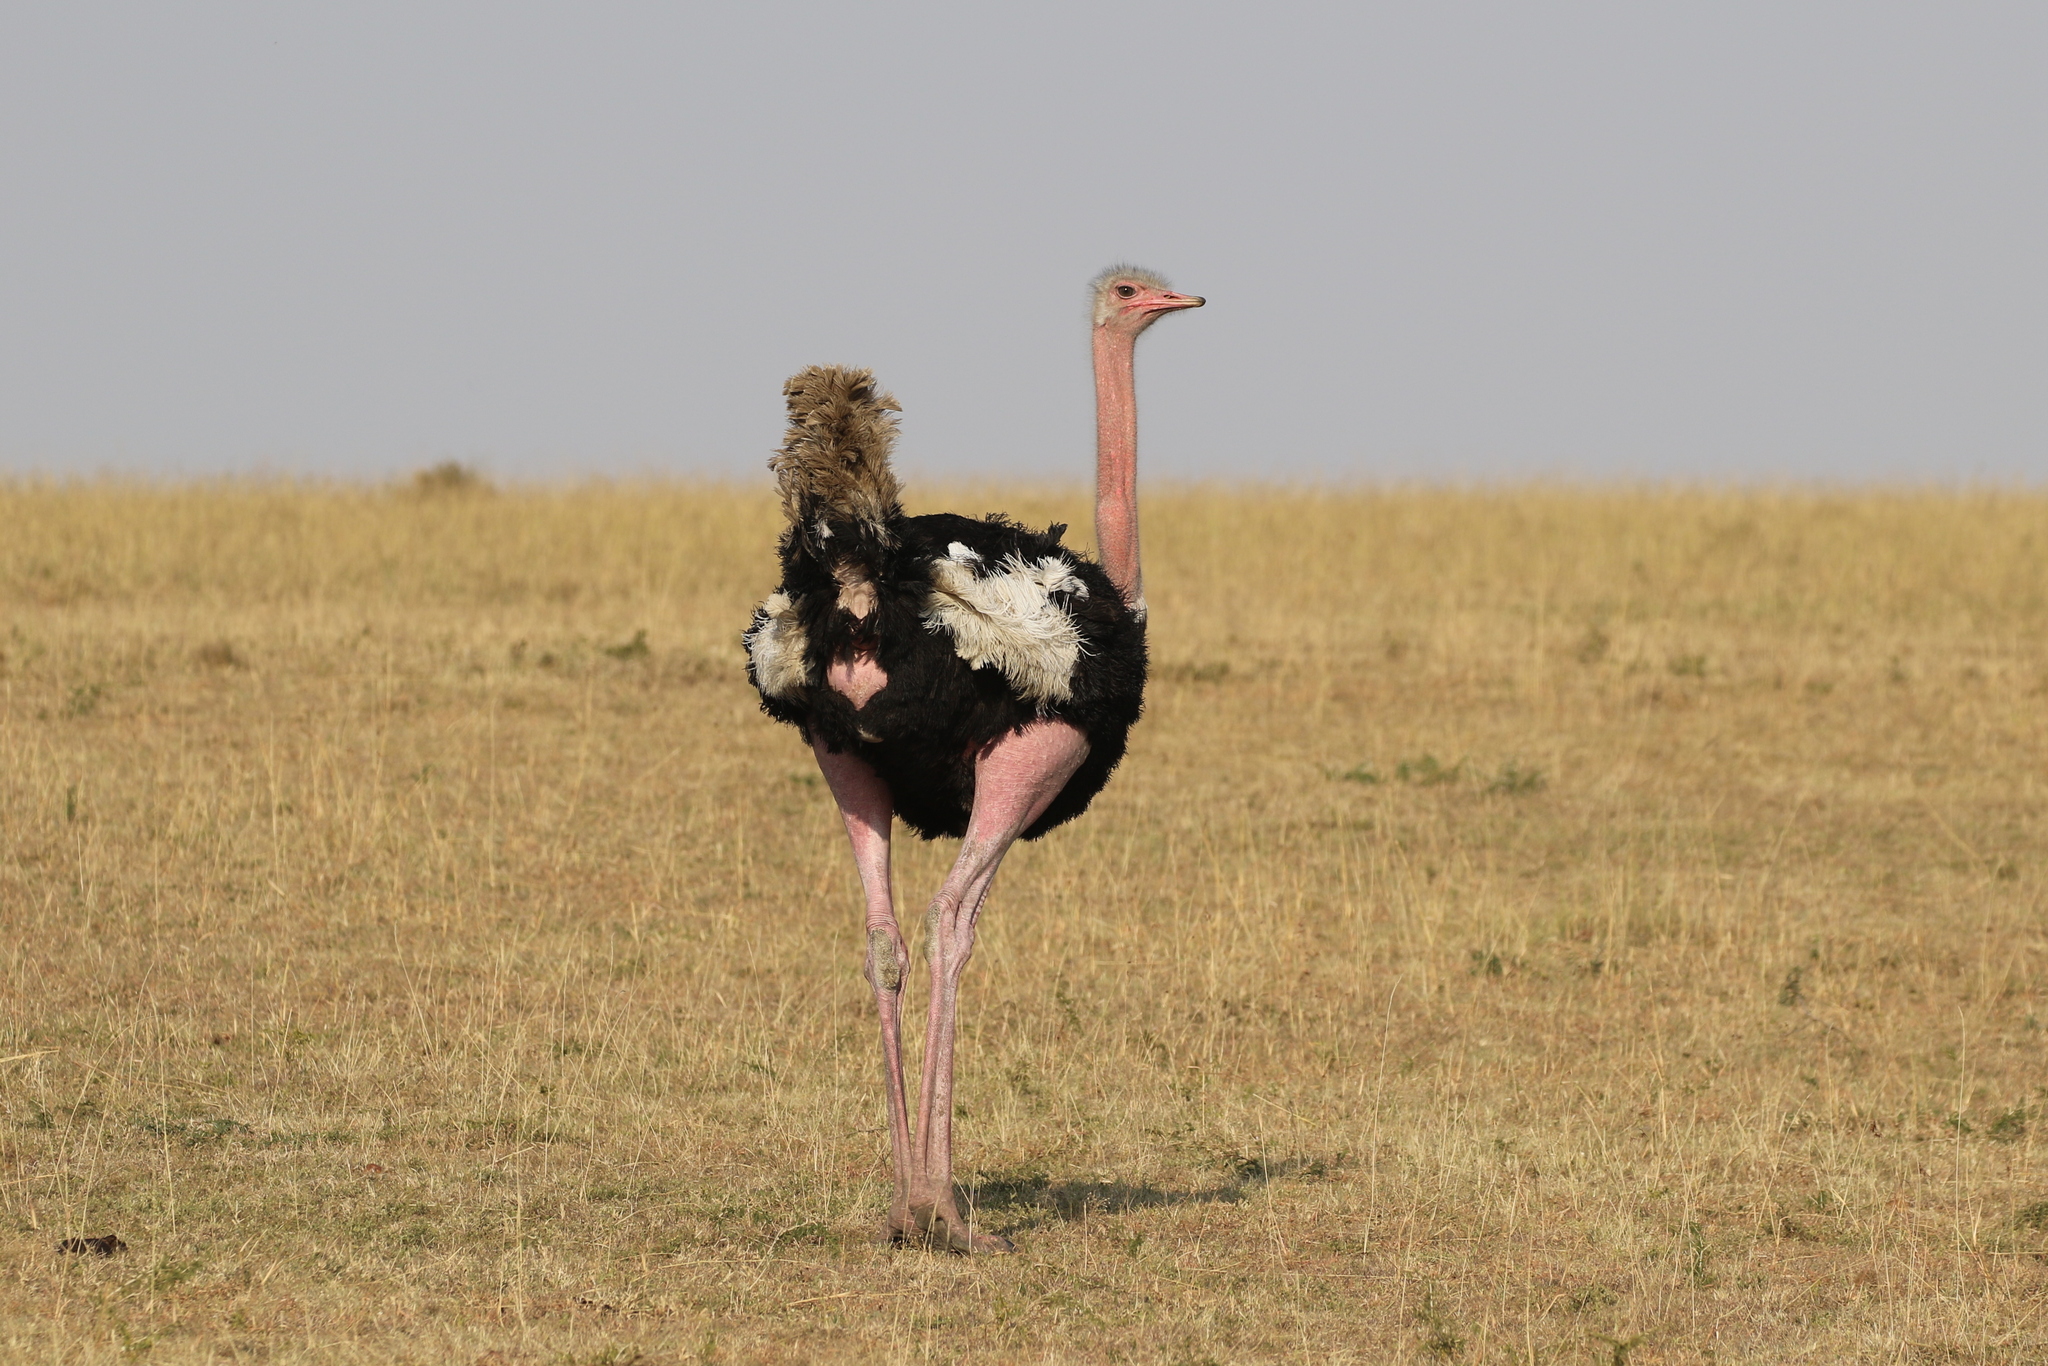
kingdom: Animalia
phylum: Chordata
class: Aves
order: Struthioniformes
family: Struthionidae
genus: Struthio
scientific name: Struthio camelus
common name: Common ostrich
